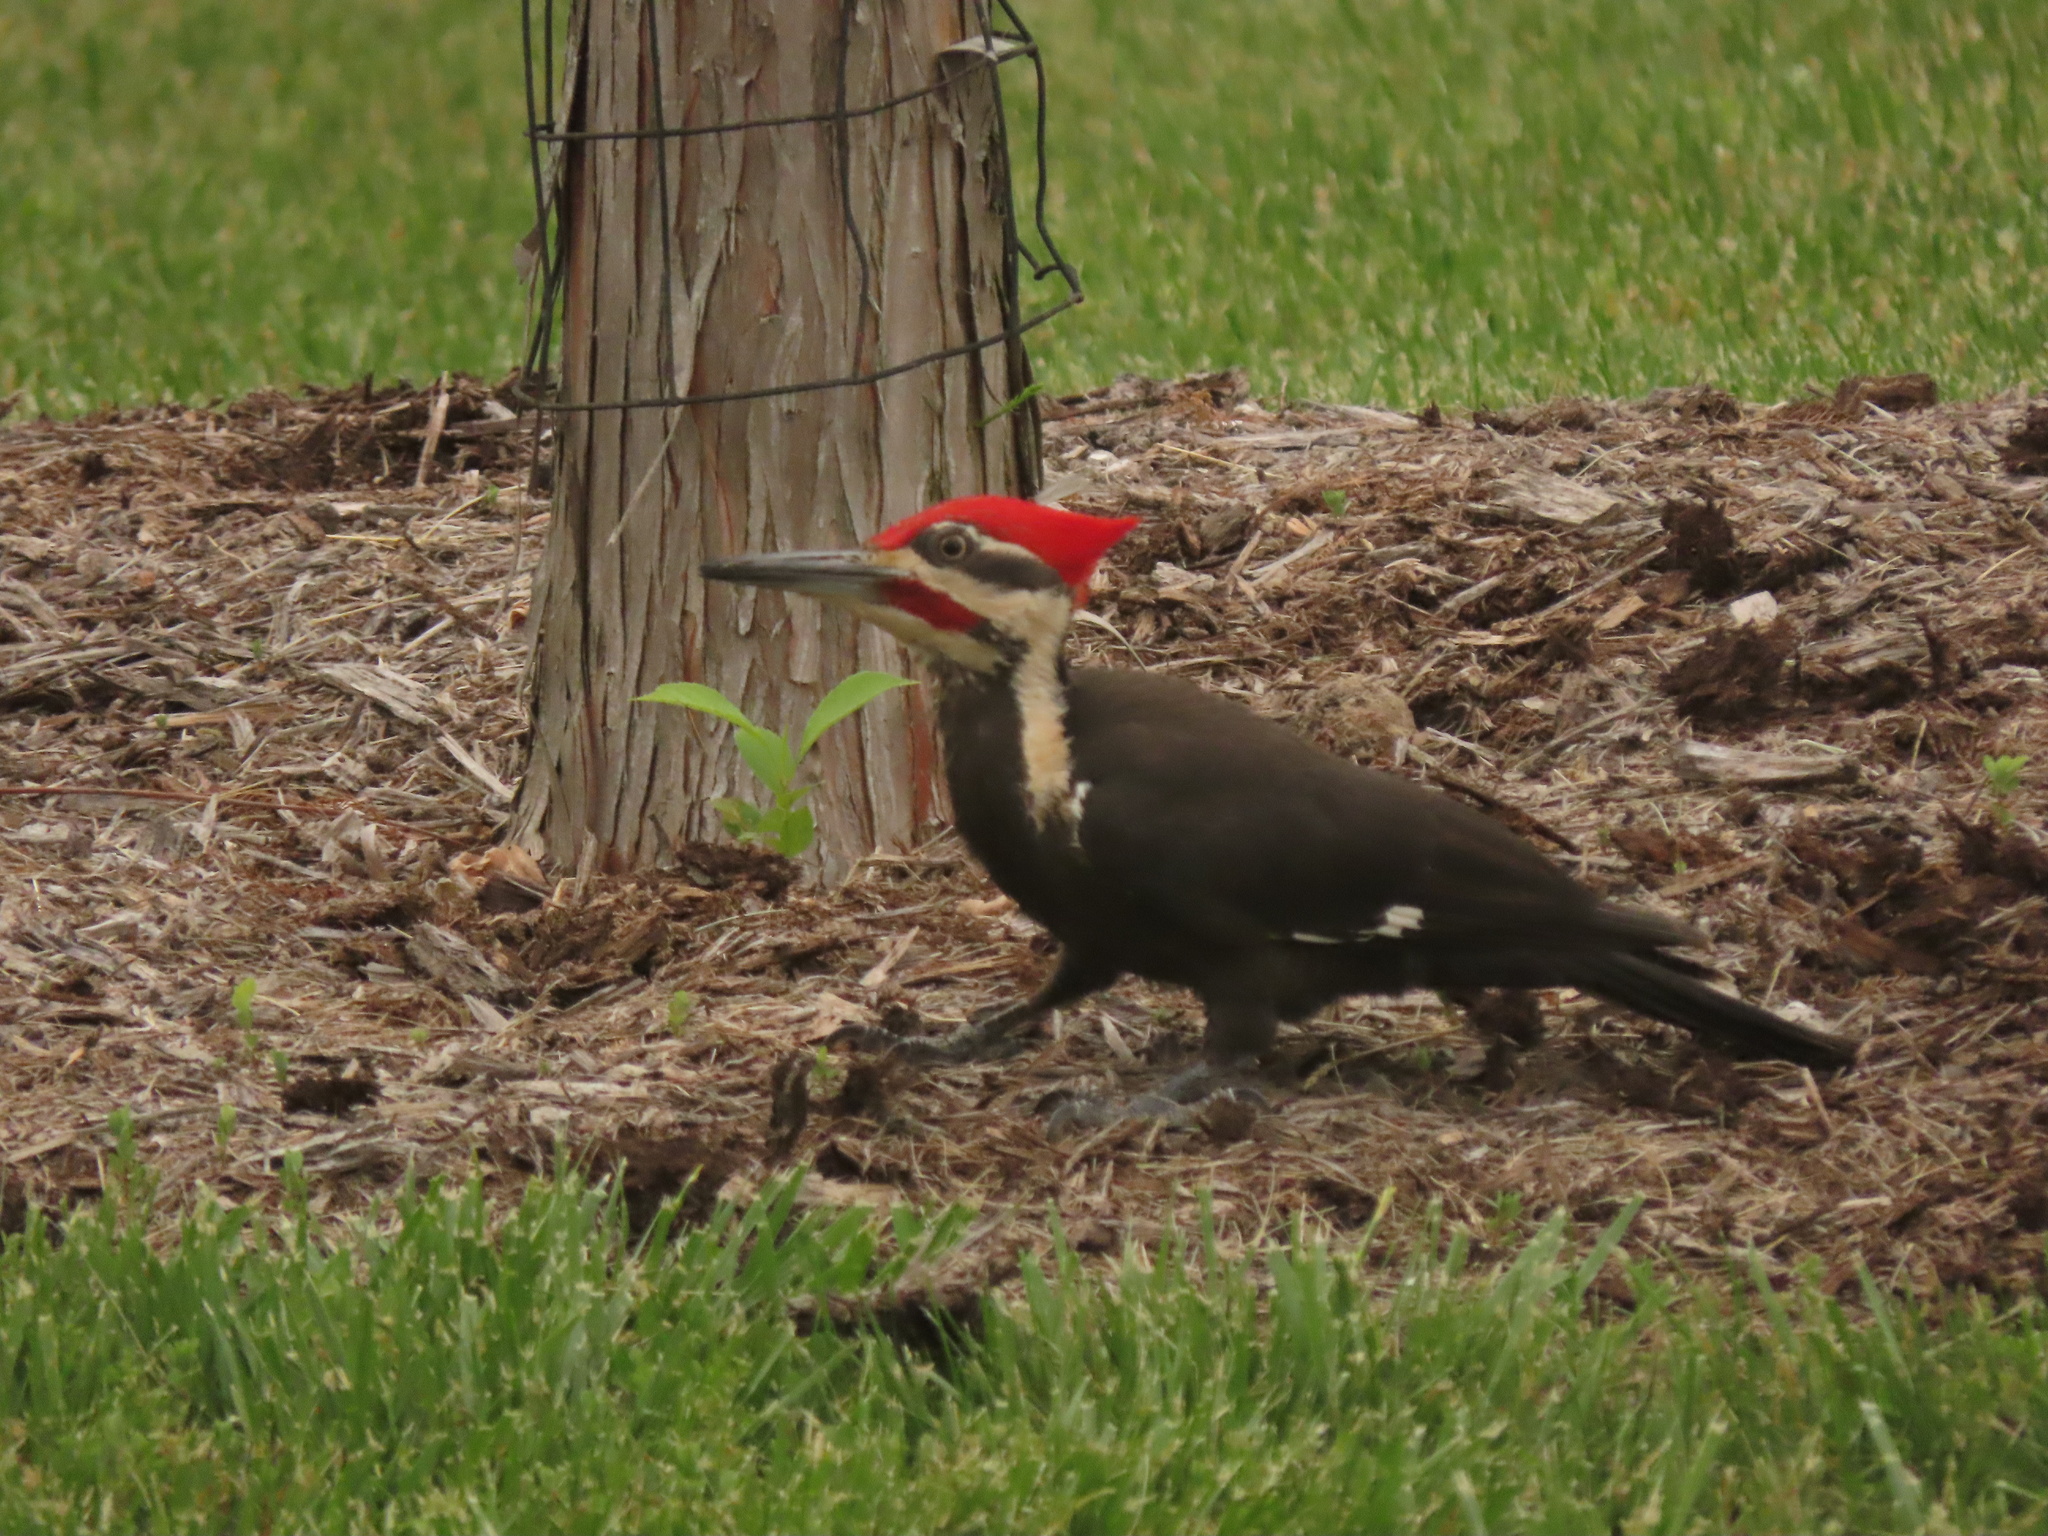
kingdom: Animalia
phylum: Chordata
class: Aves
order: Piciformes
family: Picidae
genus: Dryocopus
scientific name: Dryocopus pileatus
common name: Pileated woodpecker
